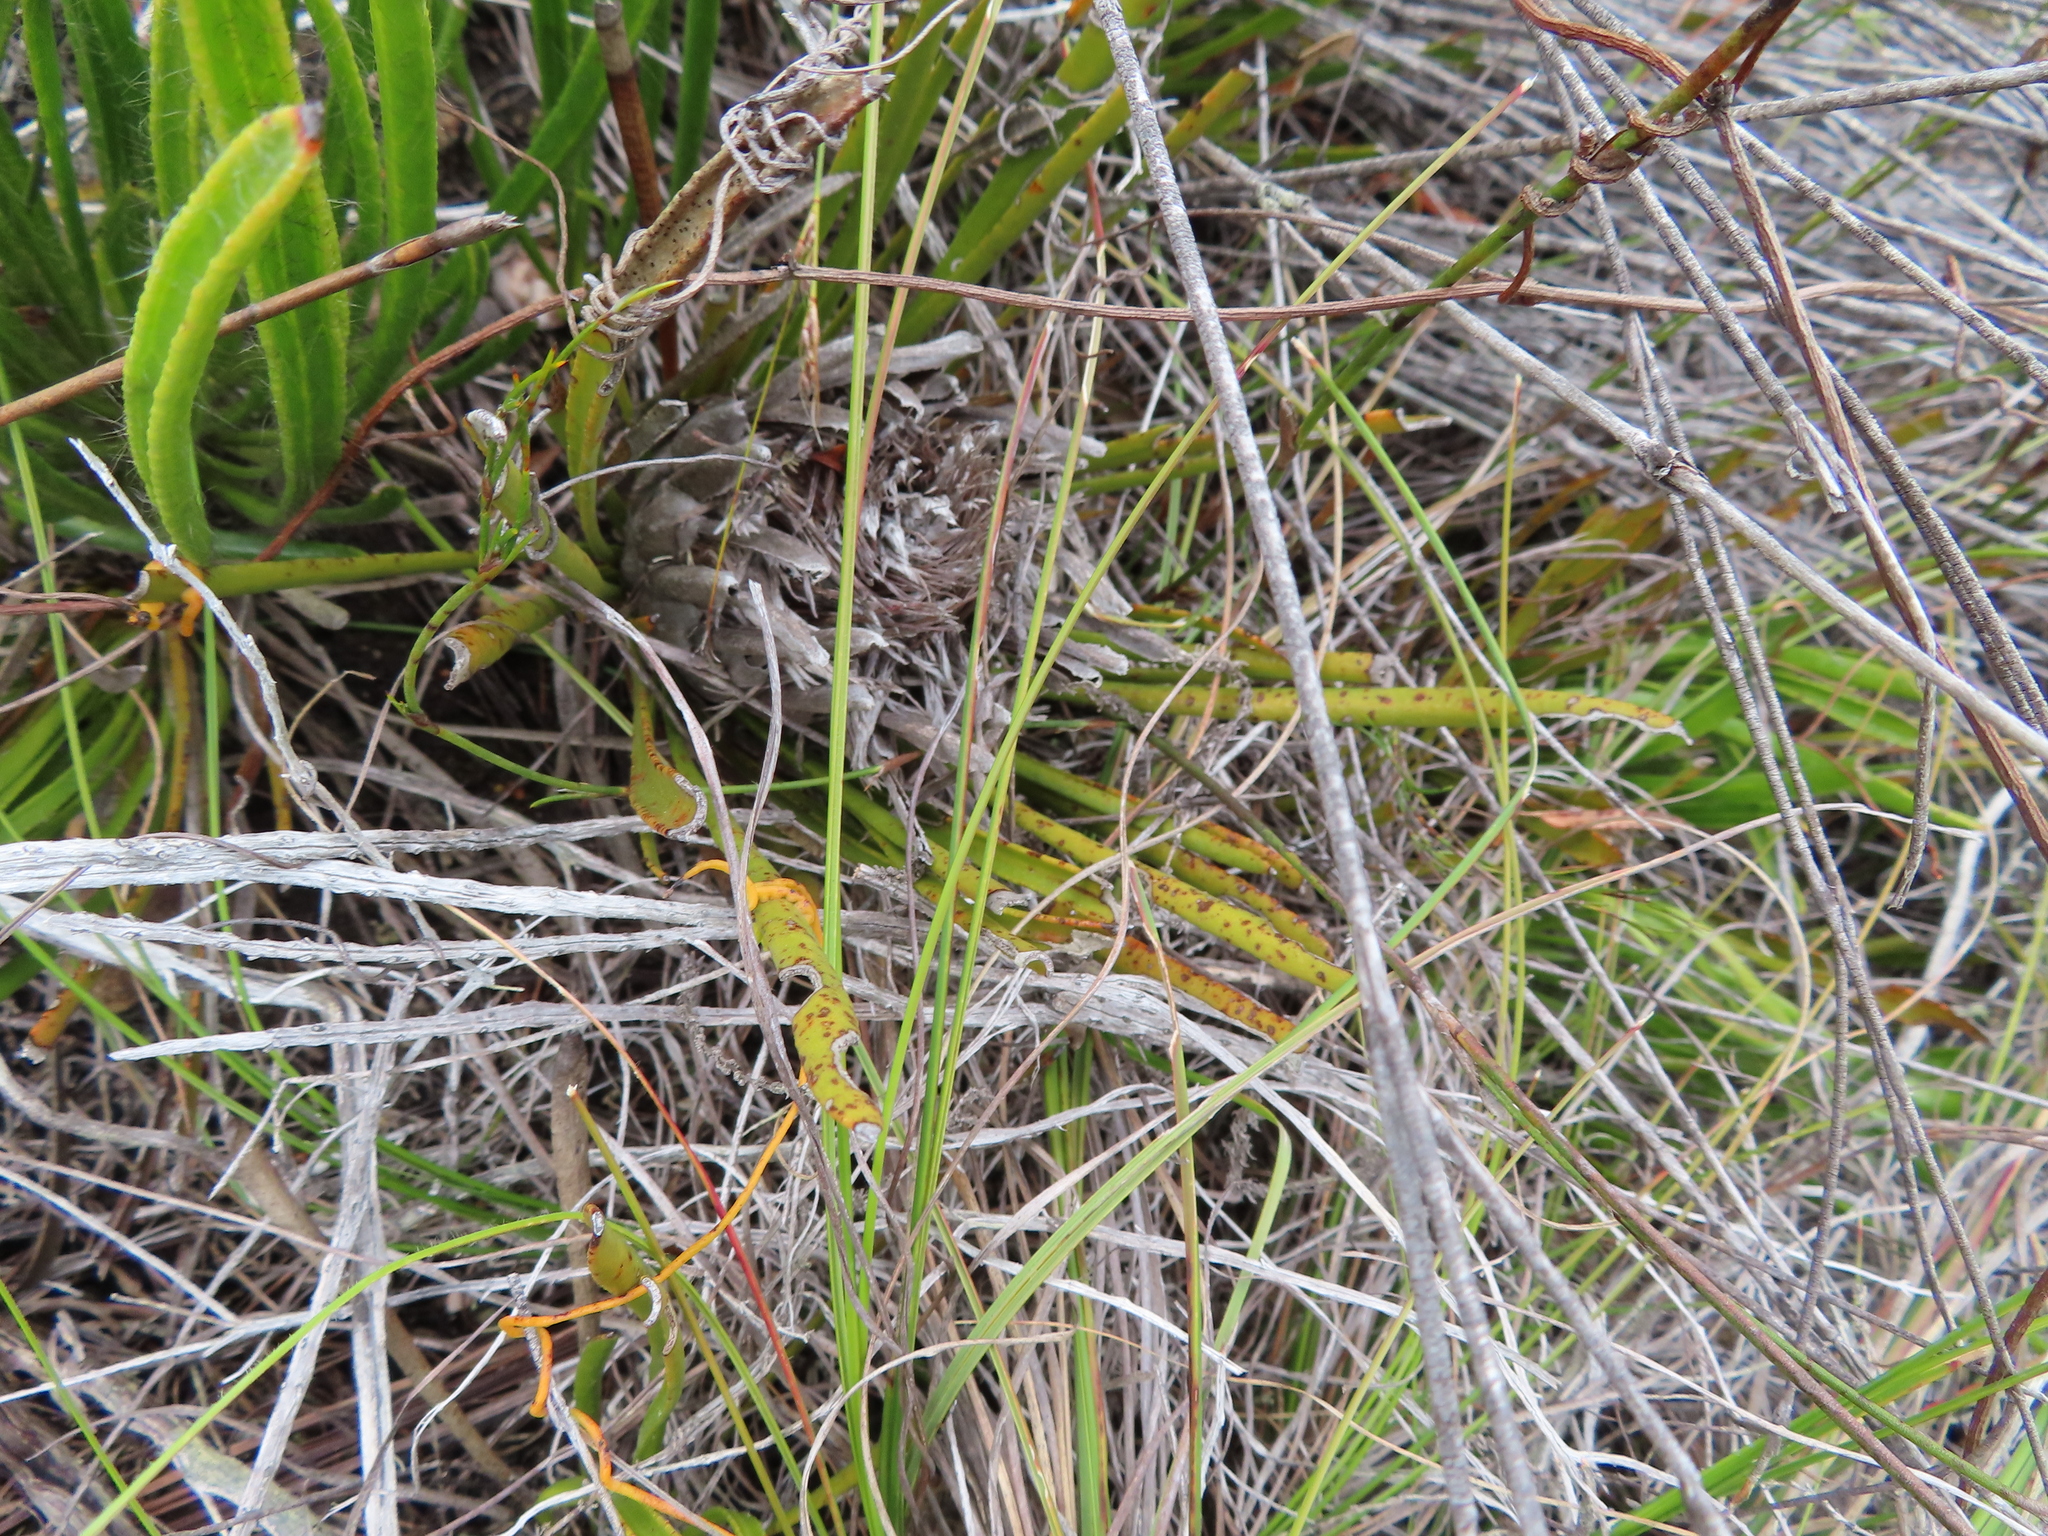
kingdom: Plantae
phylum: Tracheophyta
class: Magnoliopsida
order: Proteales
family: Proteaceae
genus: Protea
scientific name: Protea scabra
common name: Sandpaper-leaf sugarbush
